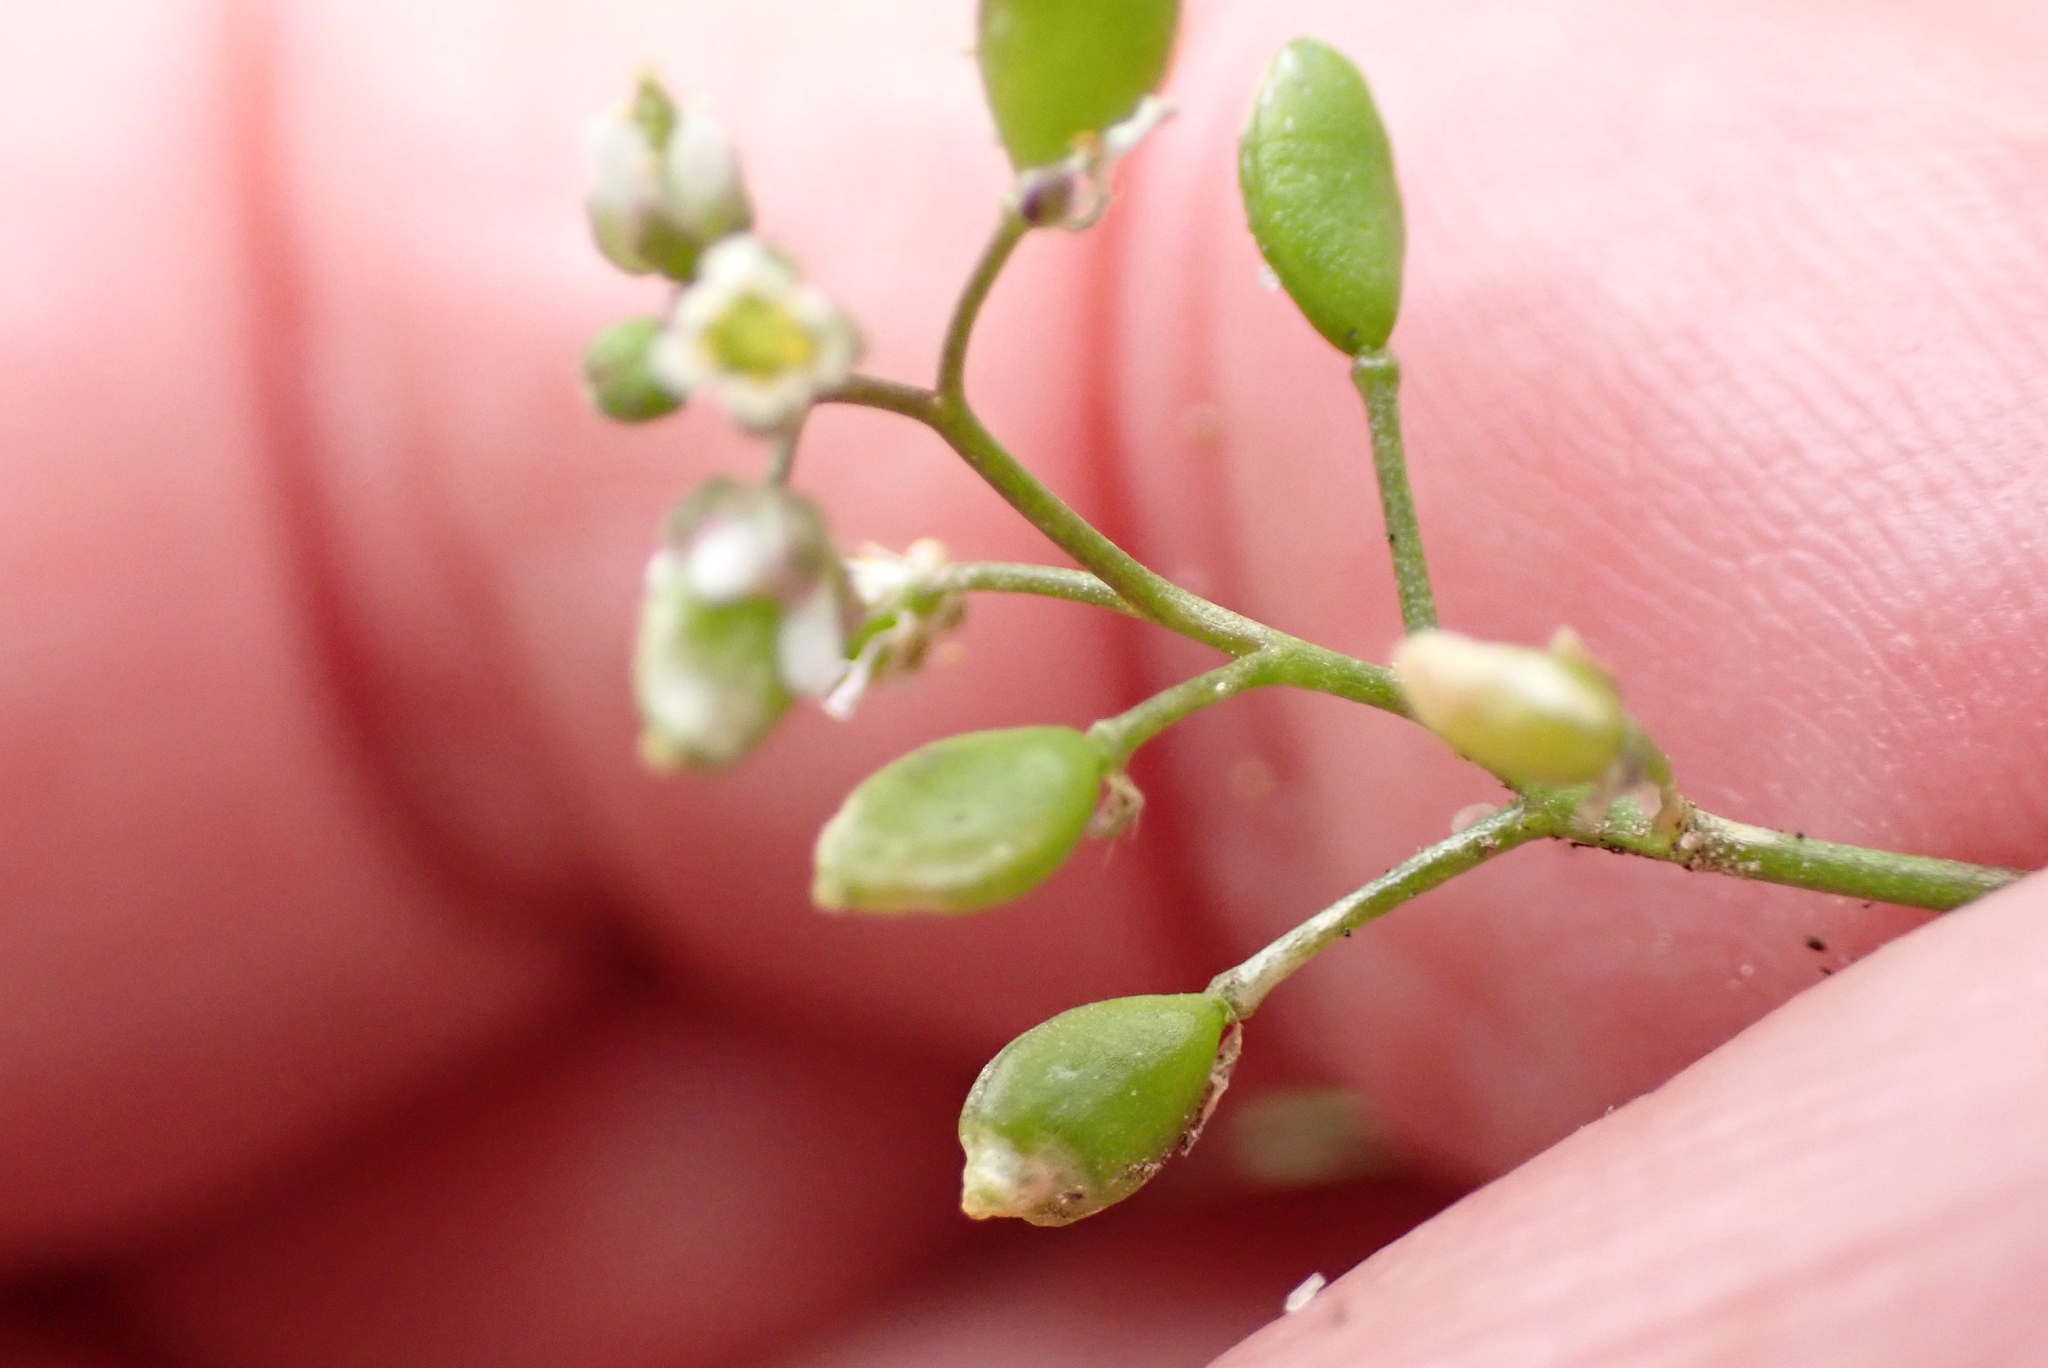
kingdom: Plantae
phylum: Tracheophyta
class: Magnoliopsida
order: Brassicales
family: Brassicaceae
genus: Draba
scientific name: Draba verna
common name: Spring draba
